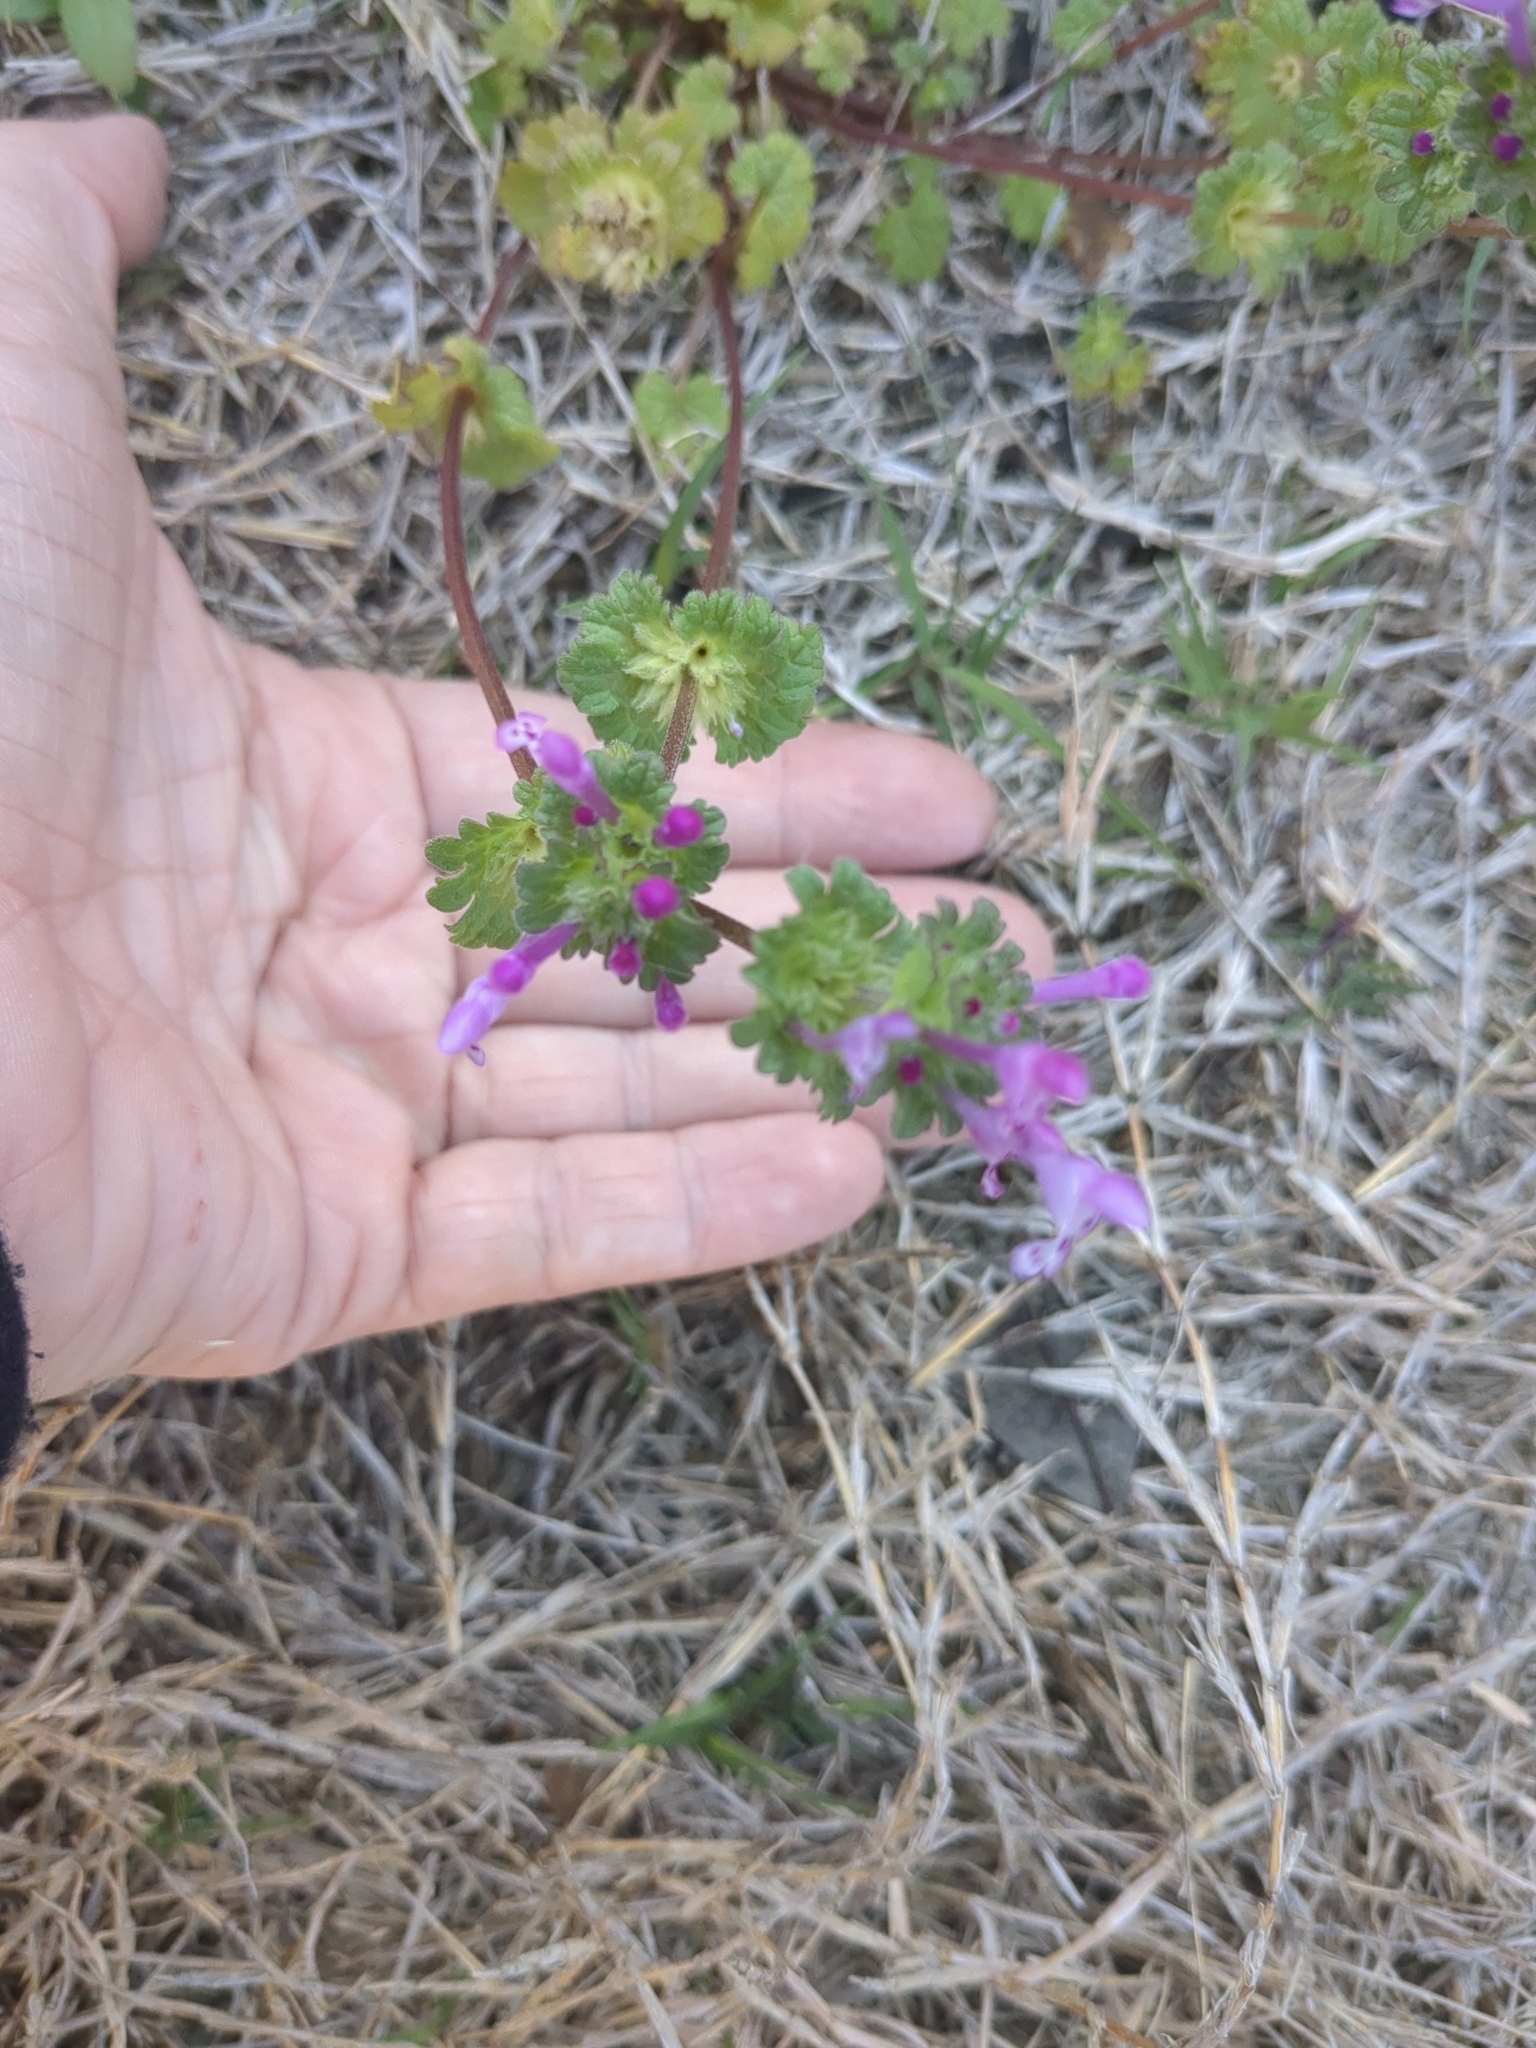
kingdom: Plantae
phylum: Tracheophyta
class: Magnoliopsida
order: Lamiales
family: Lamiaceae
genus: Lamium
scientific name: Lamium amplexicaule
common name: Henbit dead-nettle
